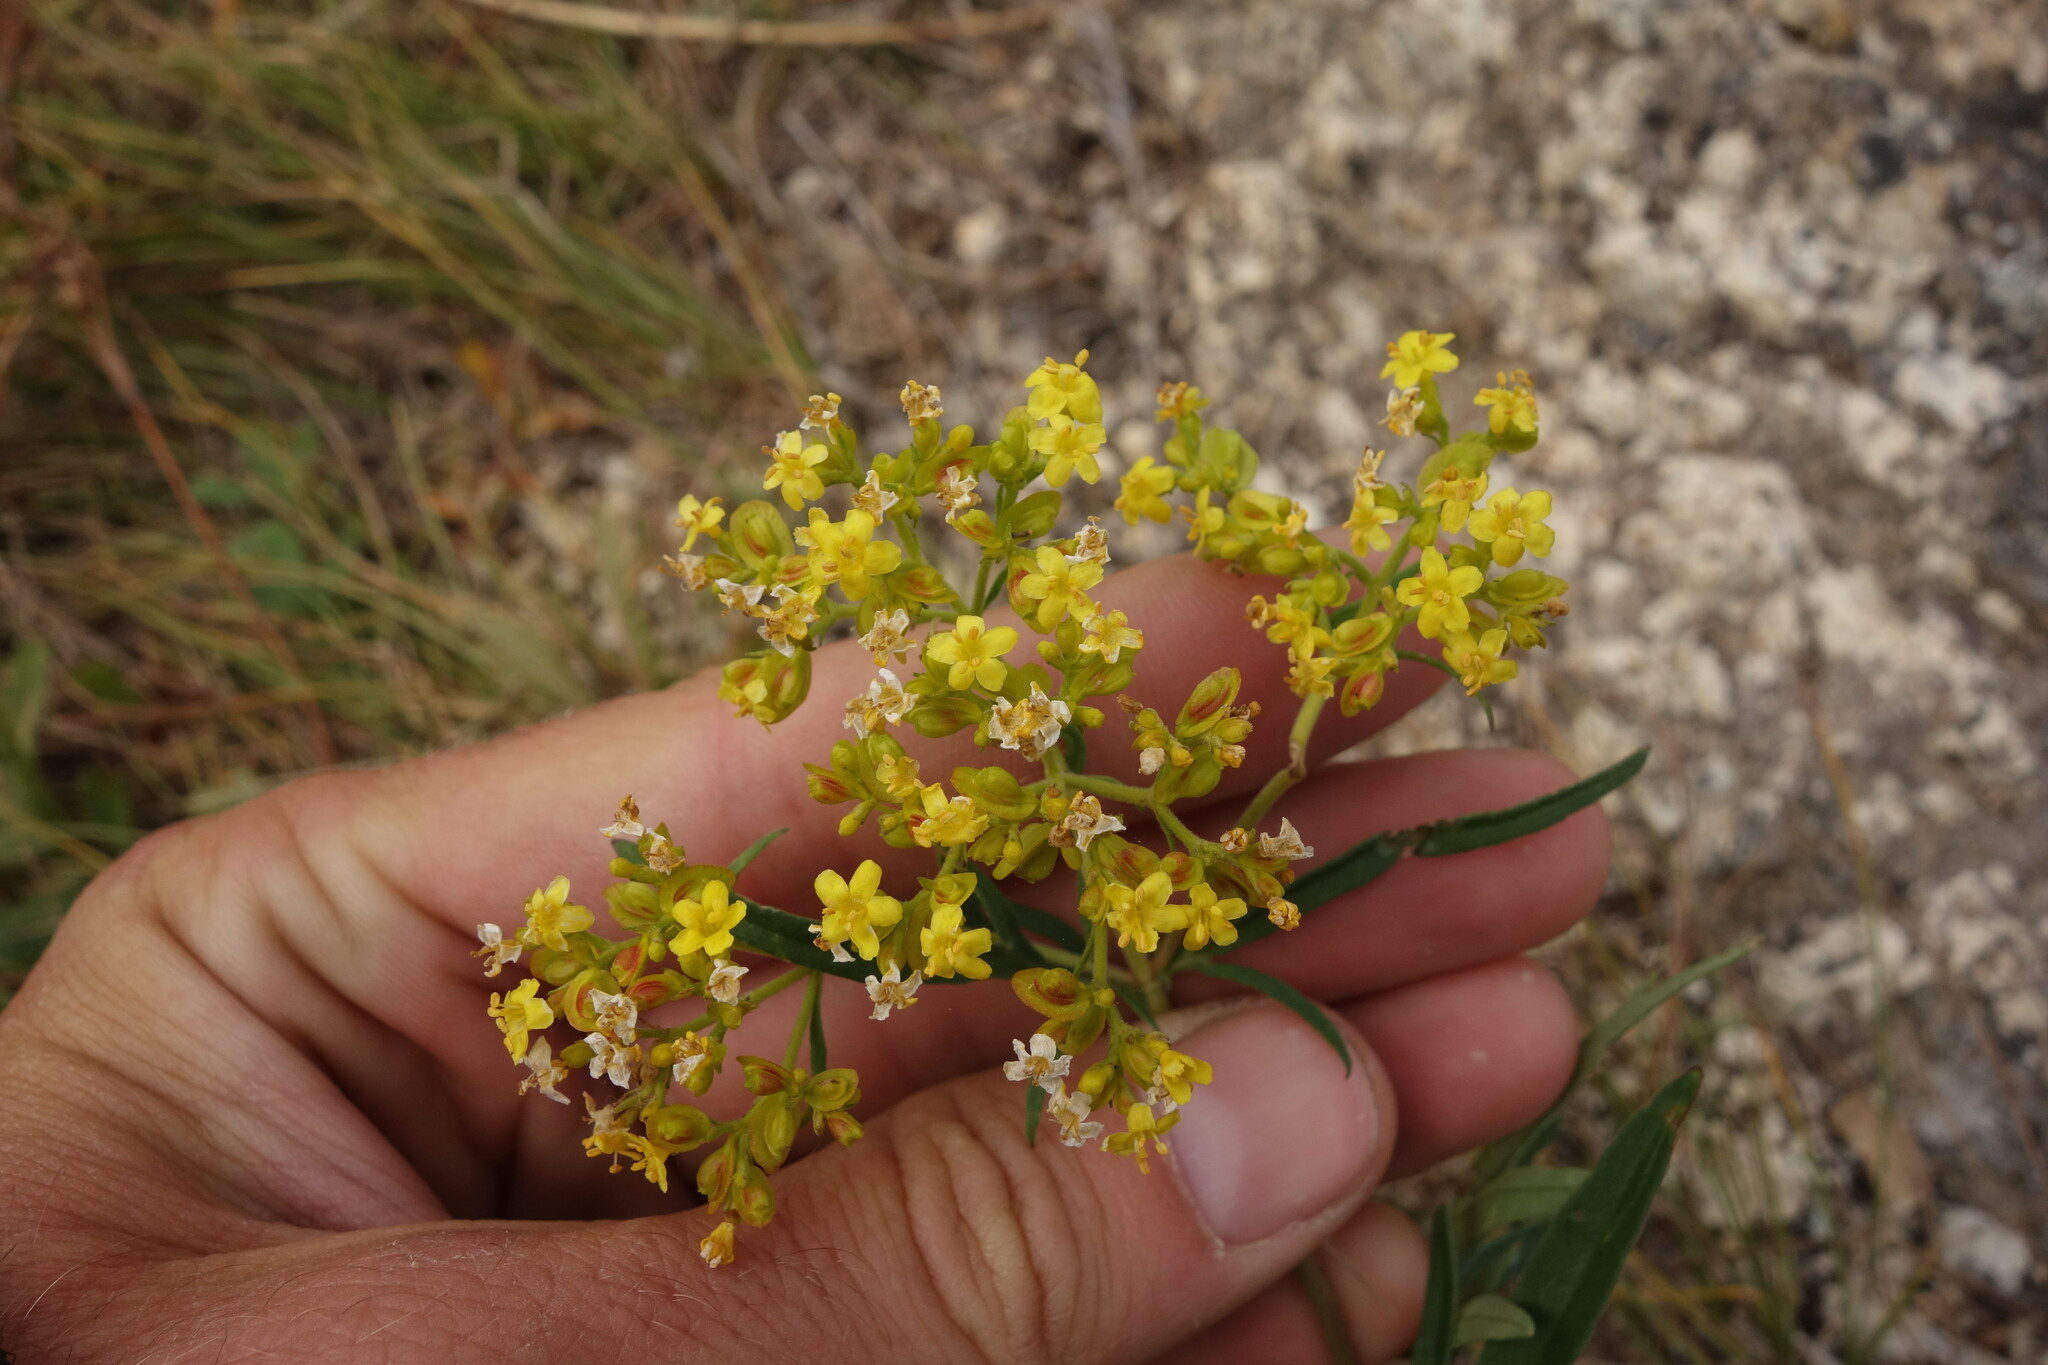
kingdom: Plantae
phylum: Tracheophyta
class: Magnoliopsida
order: Dipsacales
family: Caprifoliaceae
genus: Patrinia
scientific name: Patrinia rupestris
